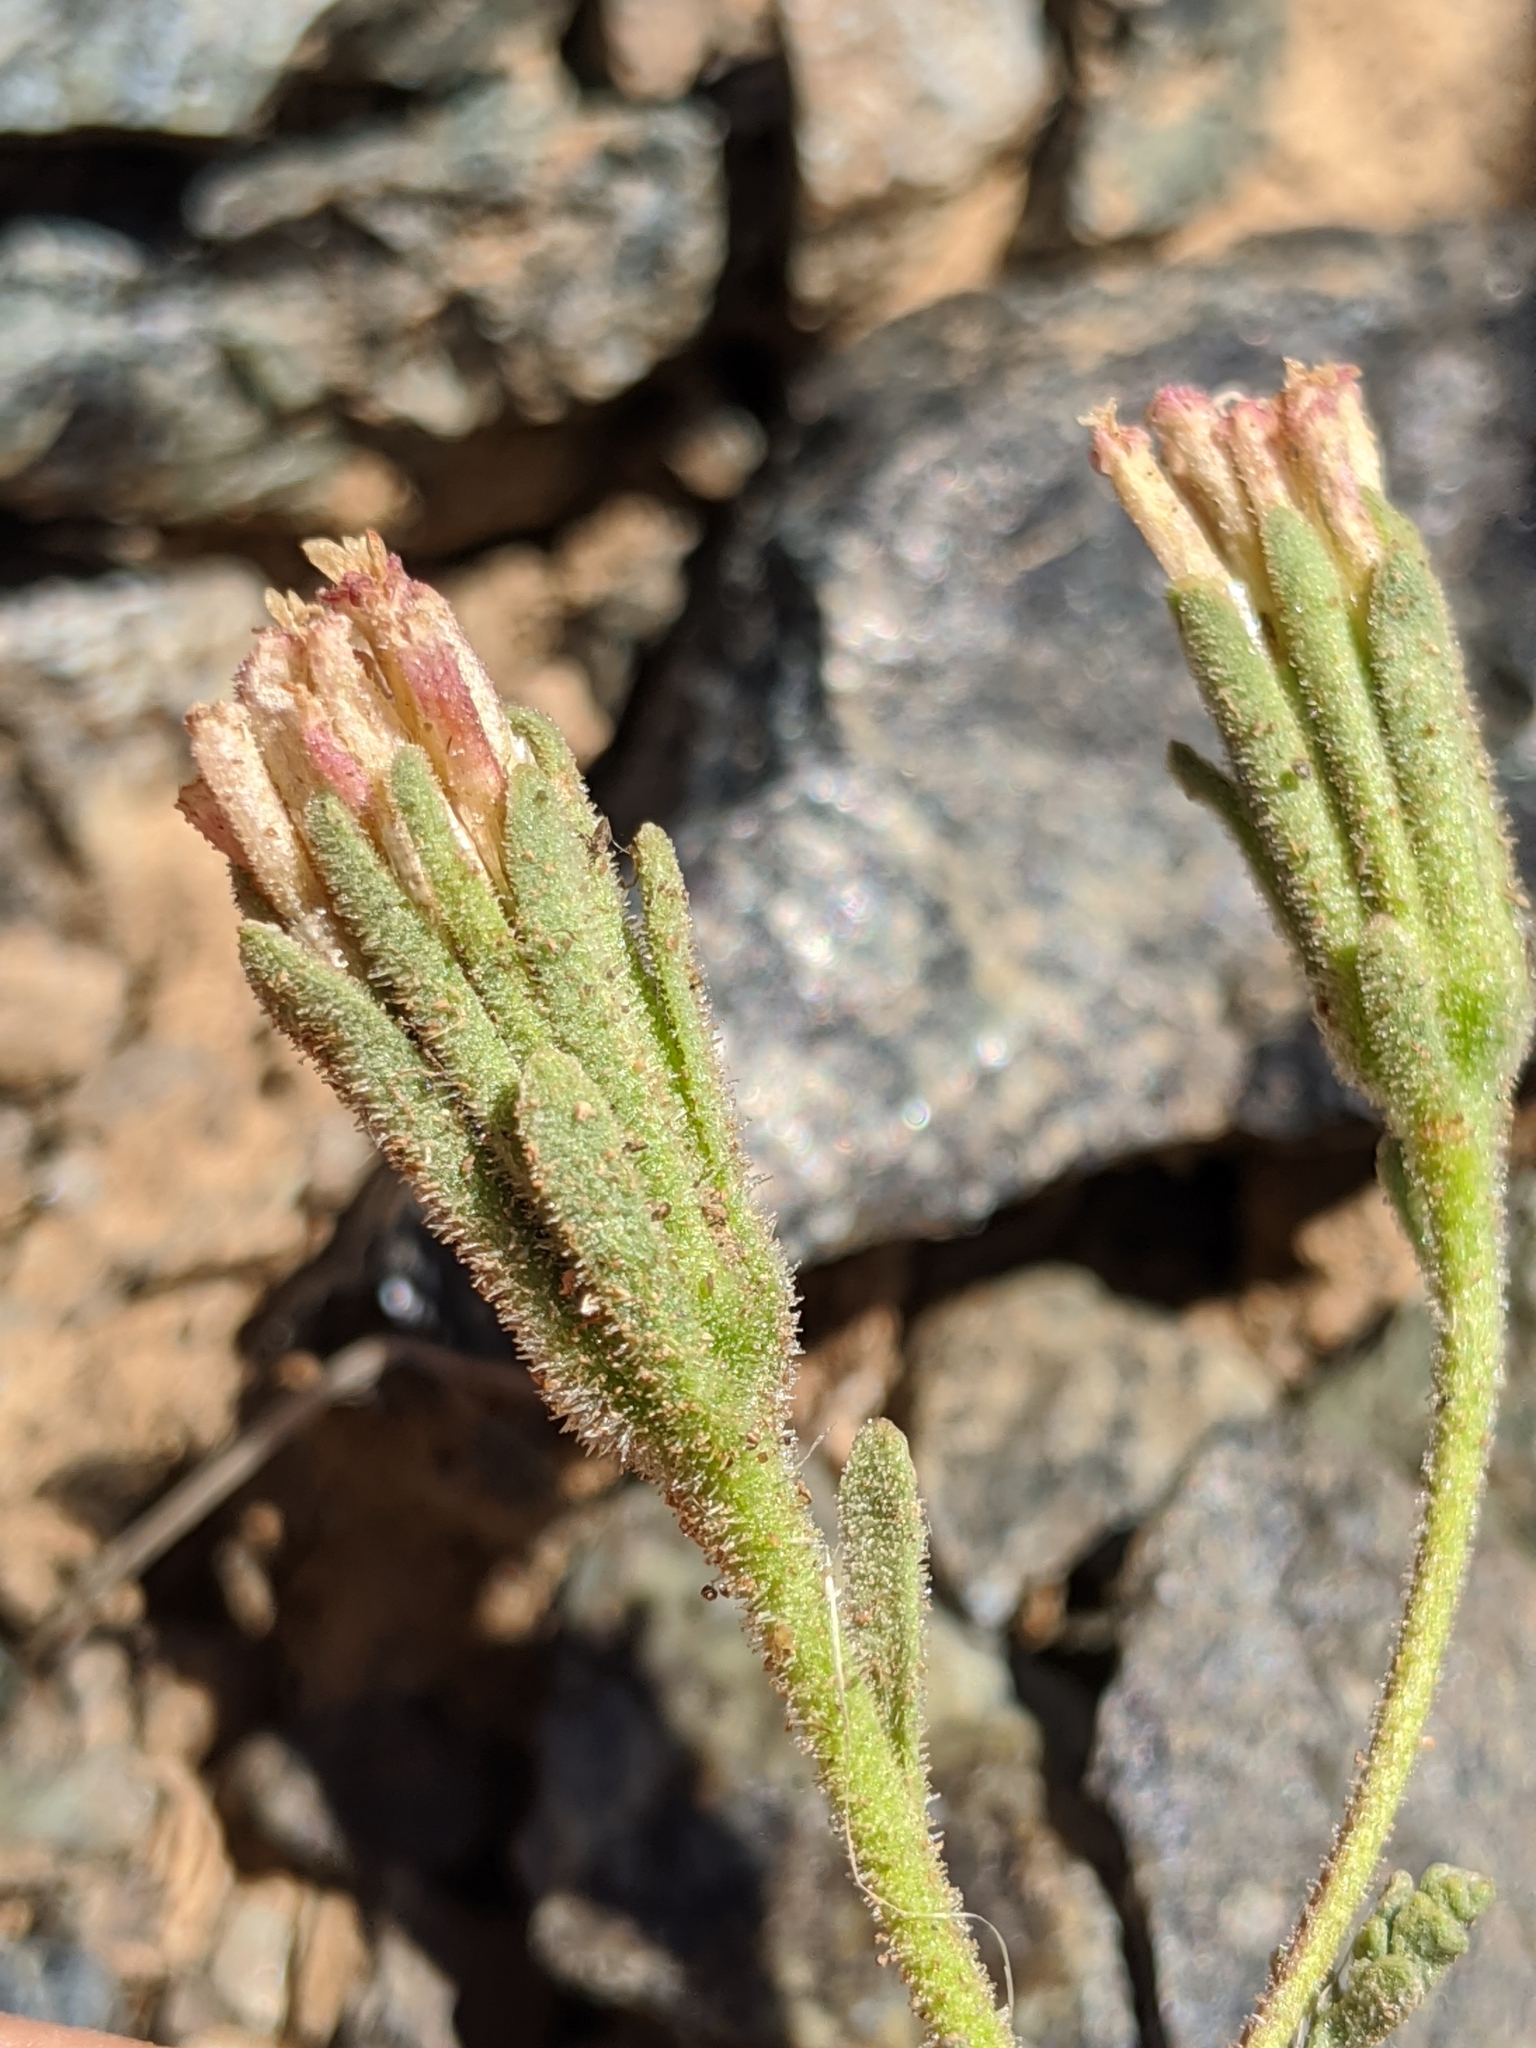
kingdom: Plantae
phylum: Tracheophyta
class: Magnoliopsida
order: Asterales
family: Asteraceae
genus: Chaenactis
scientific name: Chaenactis douglasii
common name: Hoary pincushion
